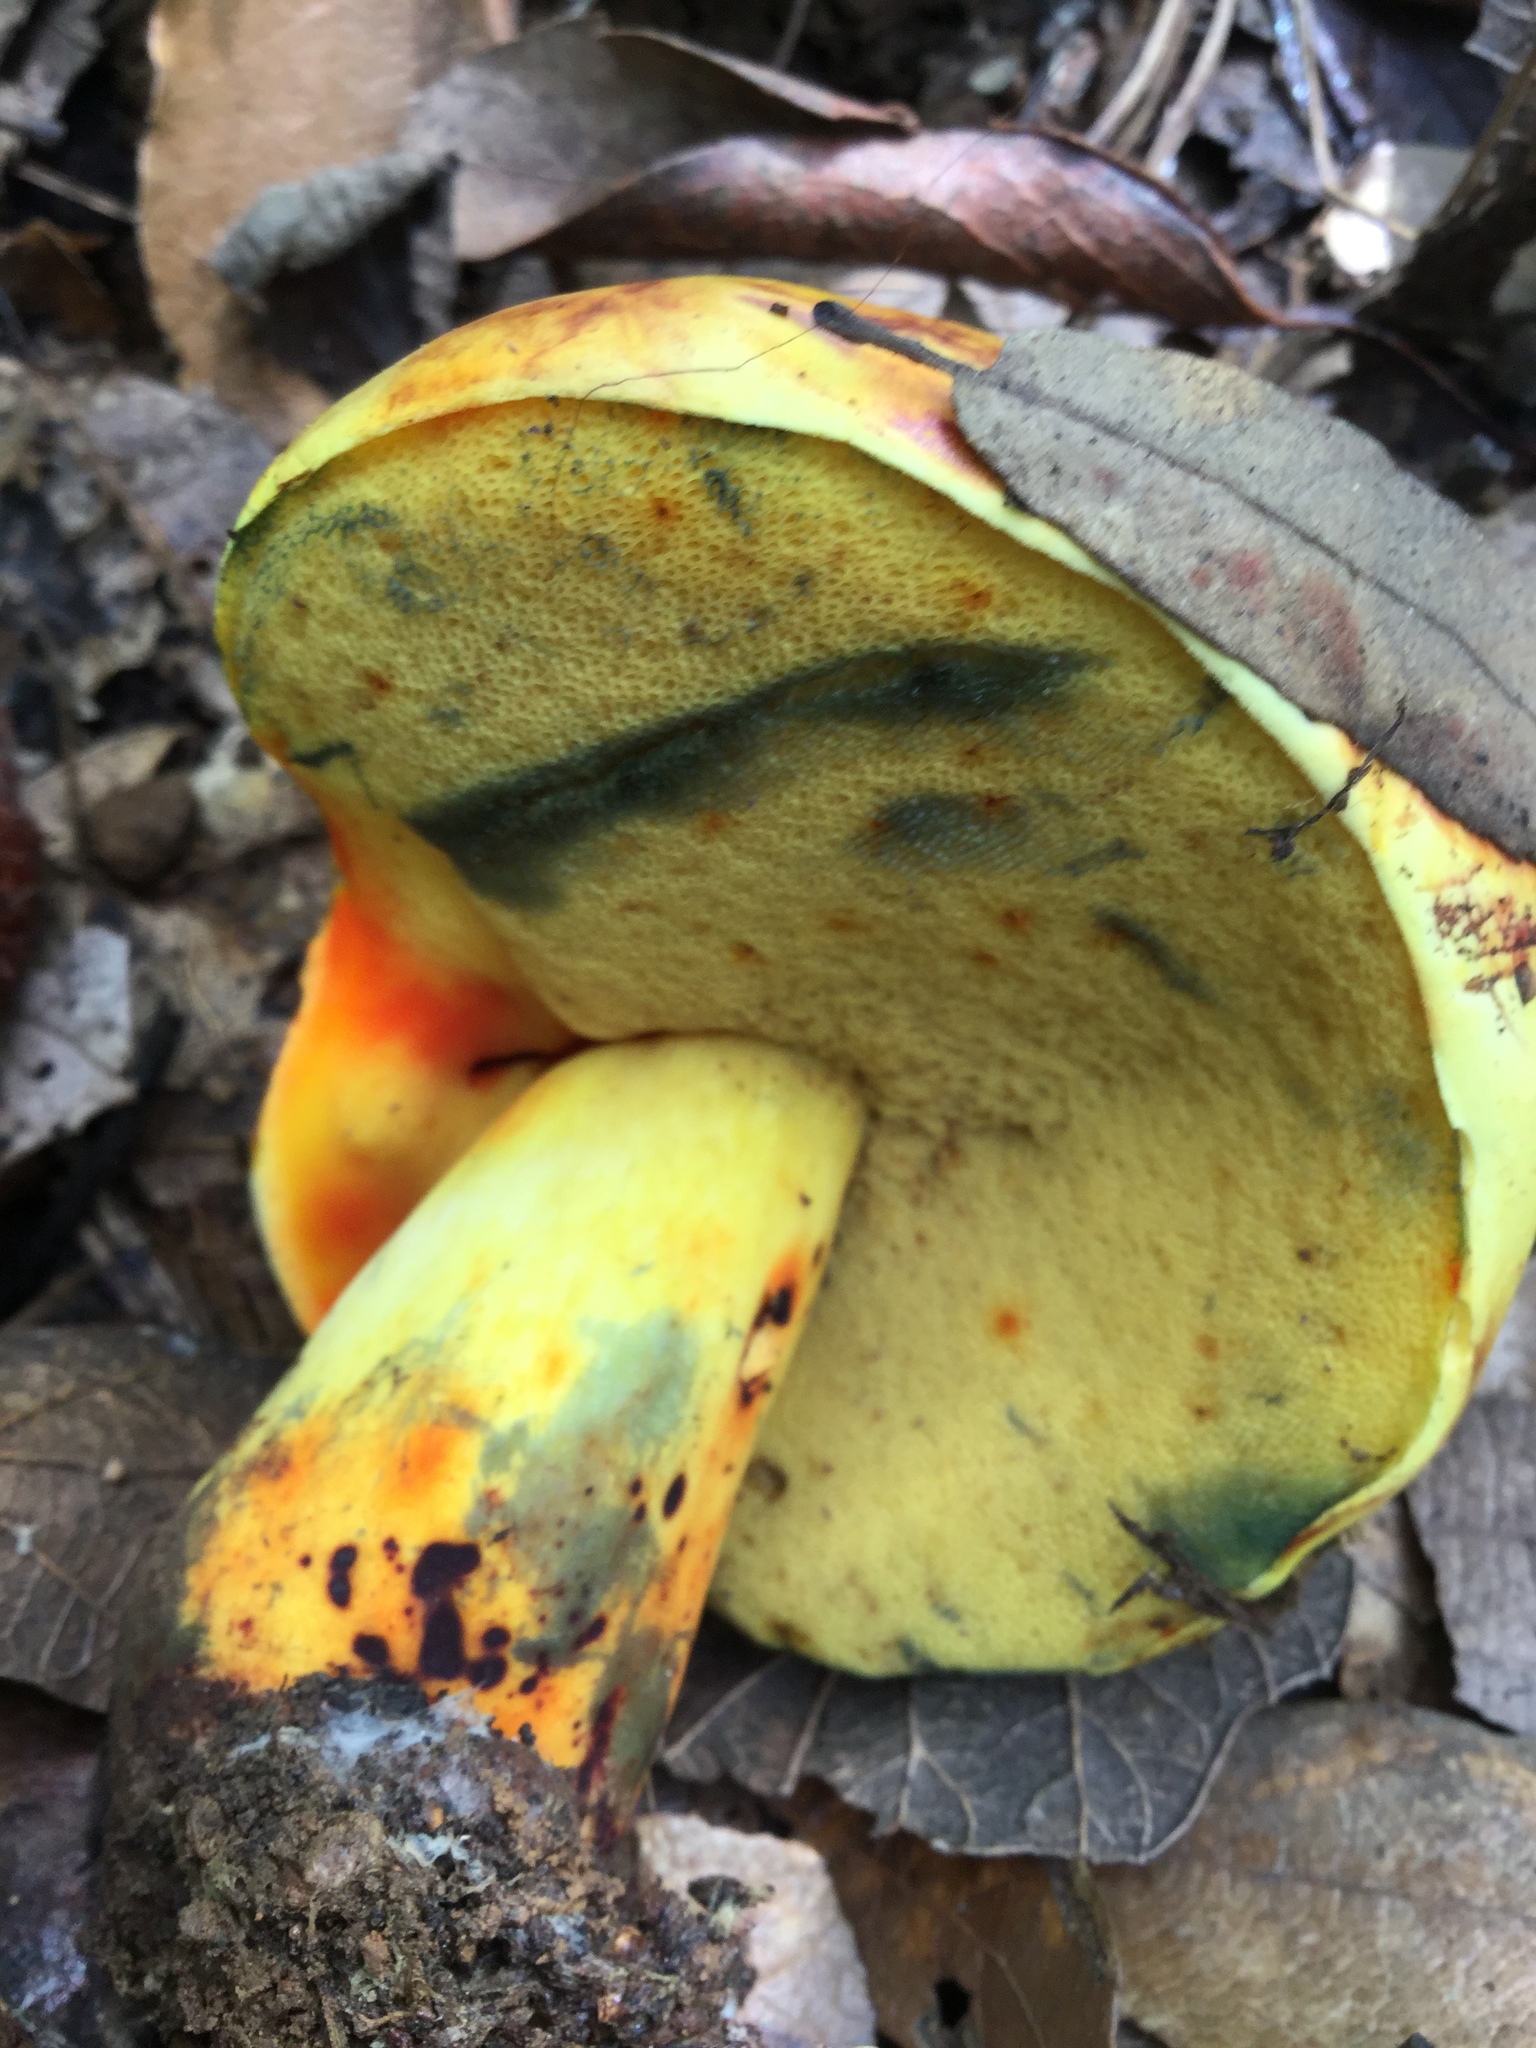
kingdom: Fungi
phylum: Basidiomycota
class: Agaricomycetes
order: Boletales
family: Boletaceae
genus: Boletus
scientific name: Boletus subluridellus
